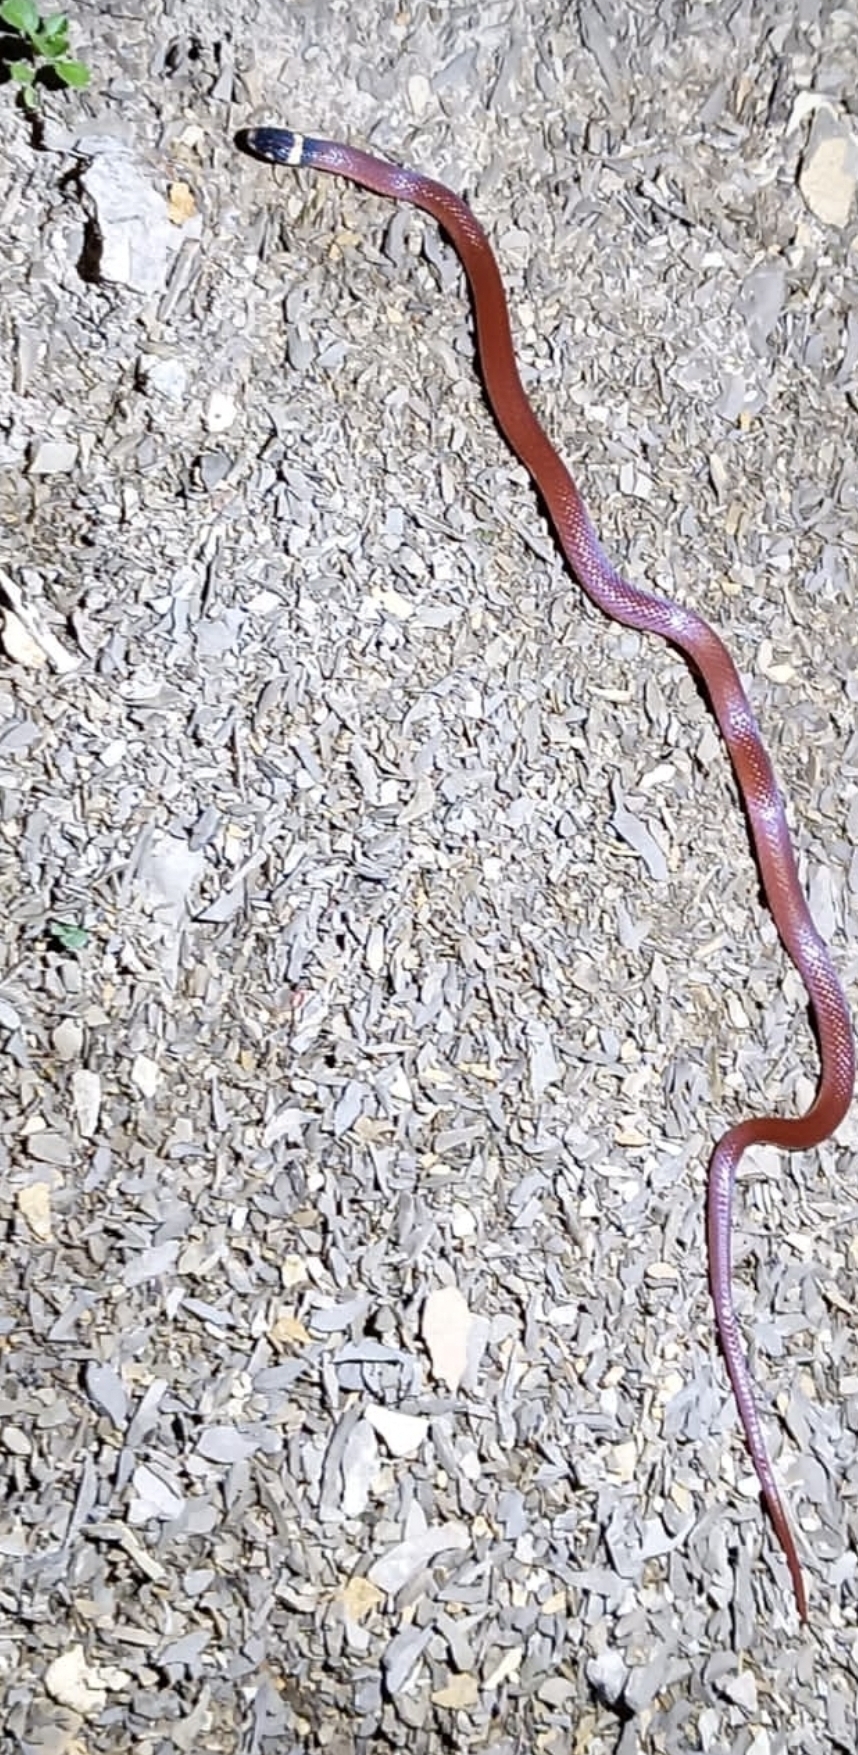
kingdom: Animalia
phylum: Chordata
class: Squamata
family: Colubridae
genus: Tantilla
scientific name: Tantilla rubra
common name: Big bend black-headed snake
